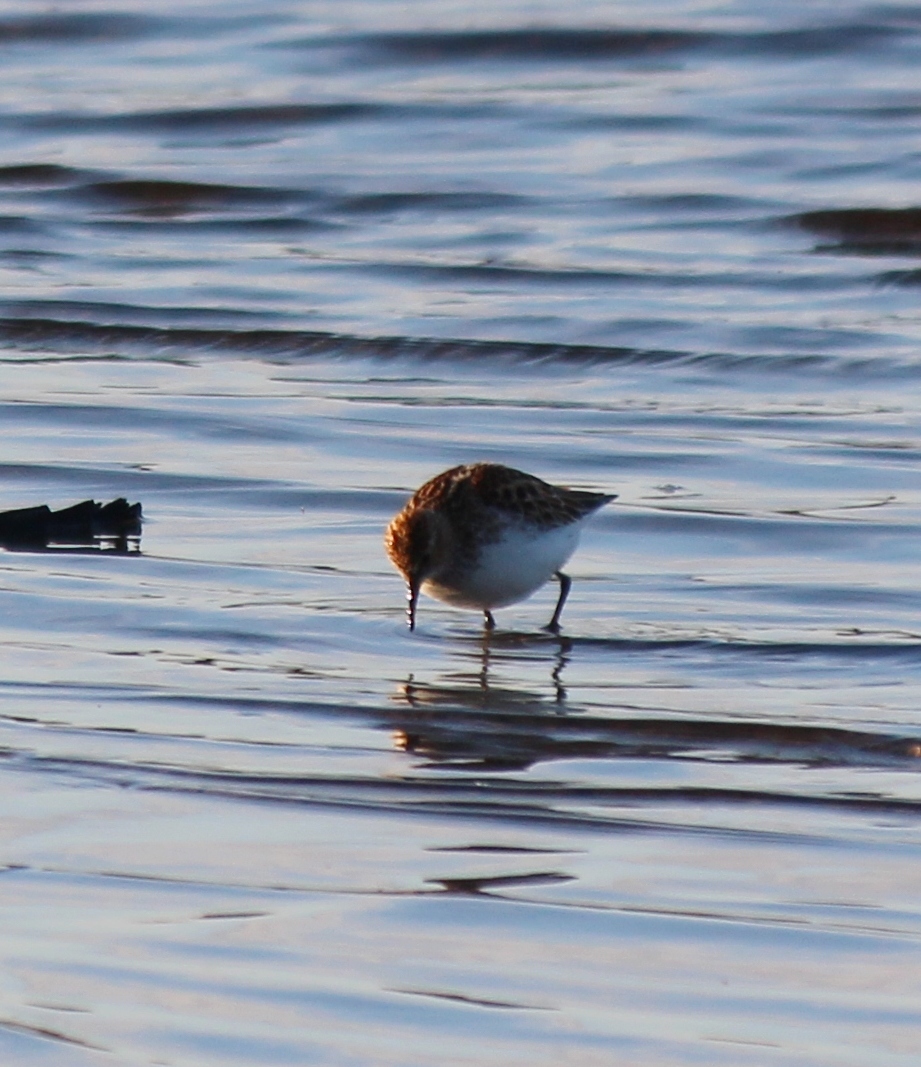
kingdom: Animalia
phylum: Chordata
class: Aves
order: Charadriiformes
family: Scolopacidae
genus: Calidris
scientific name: Calidris minuta
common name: Little stint
